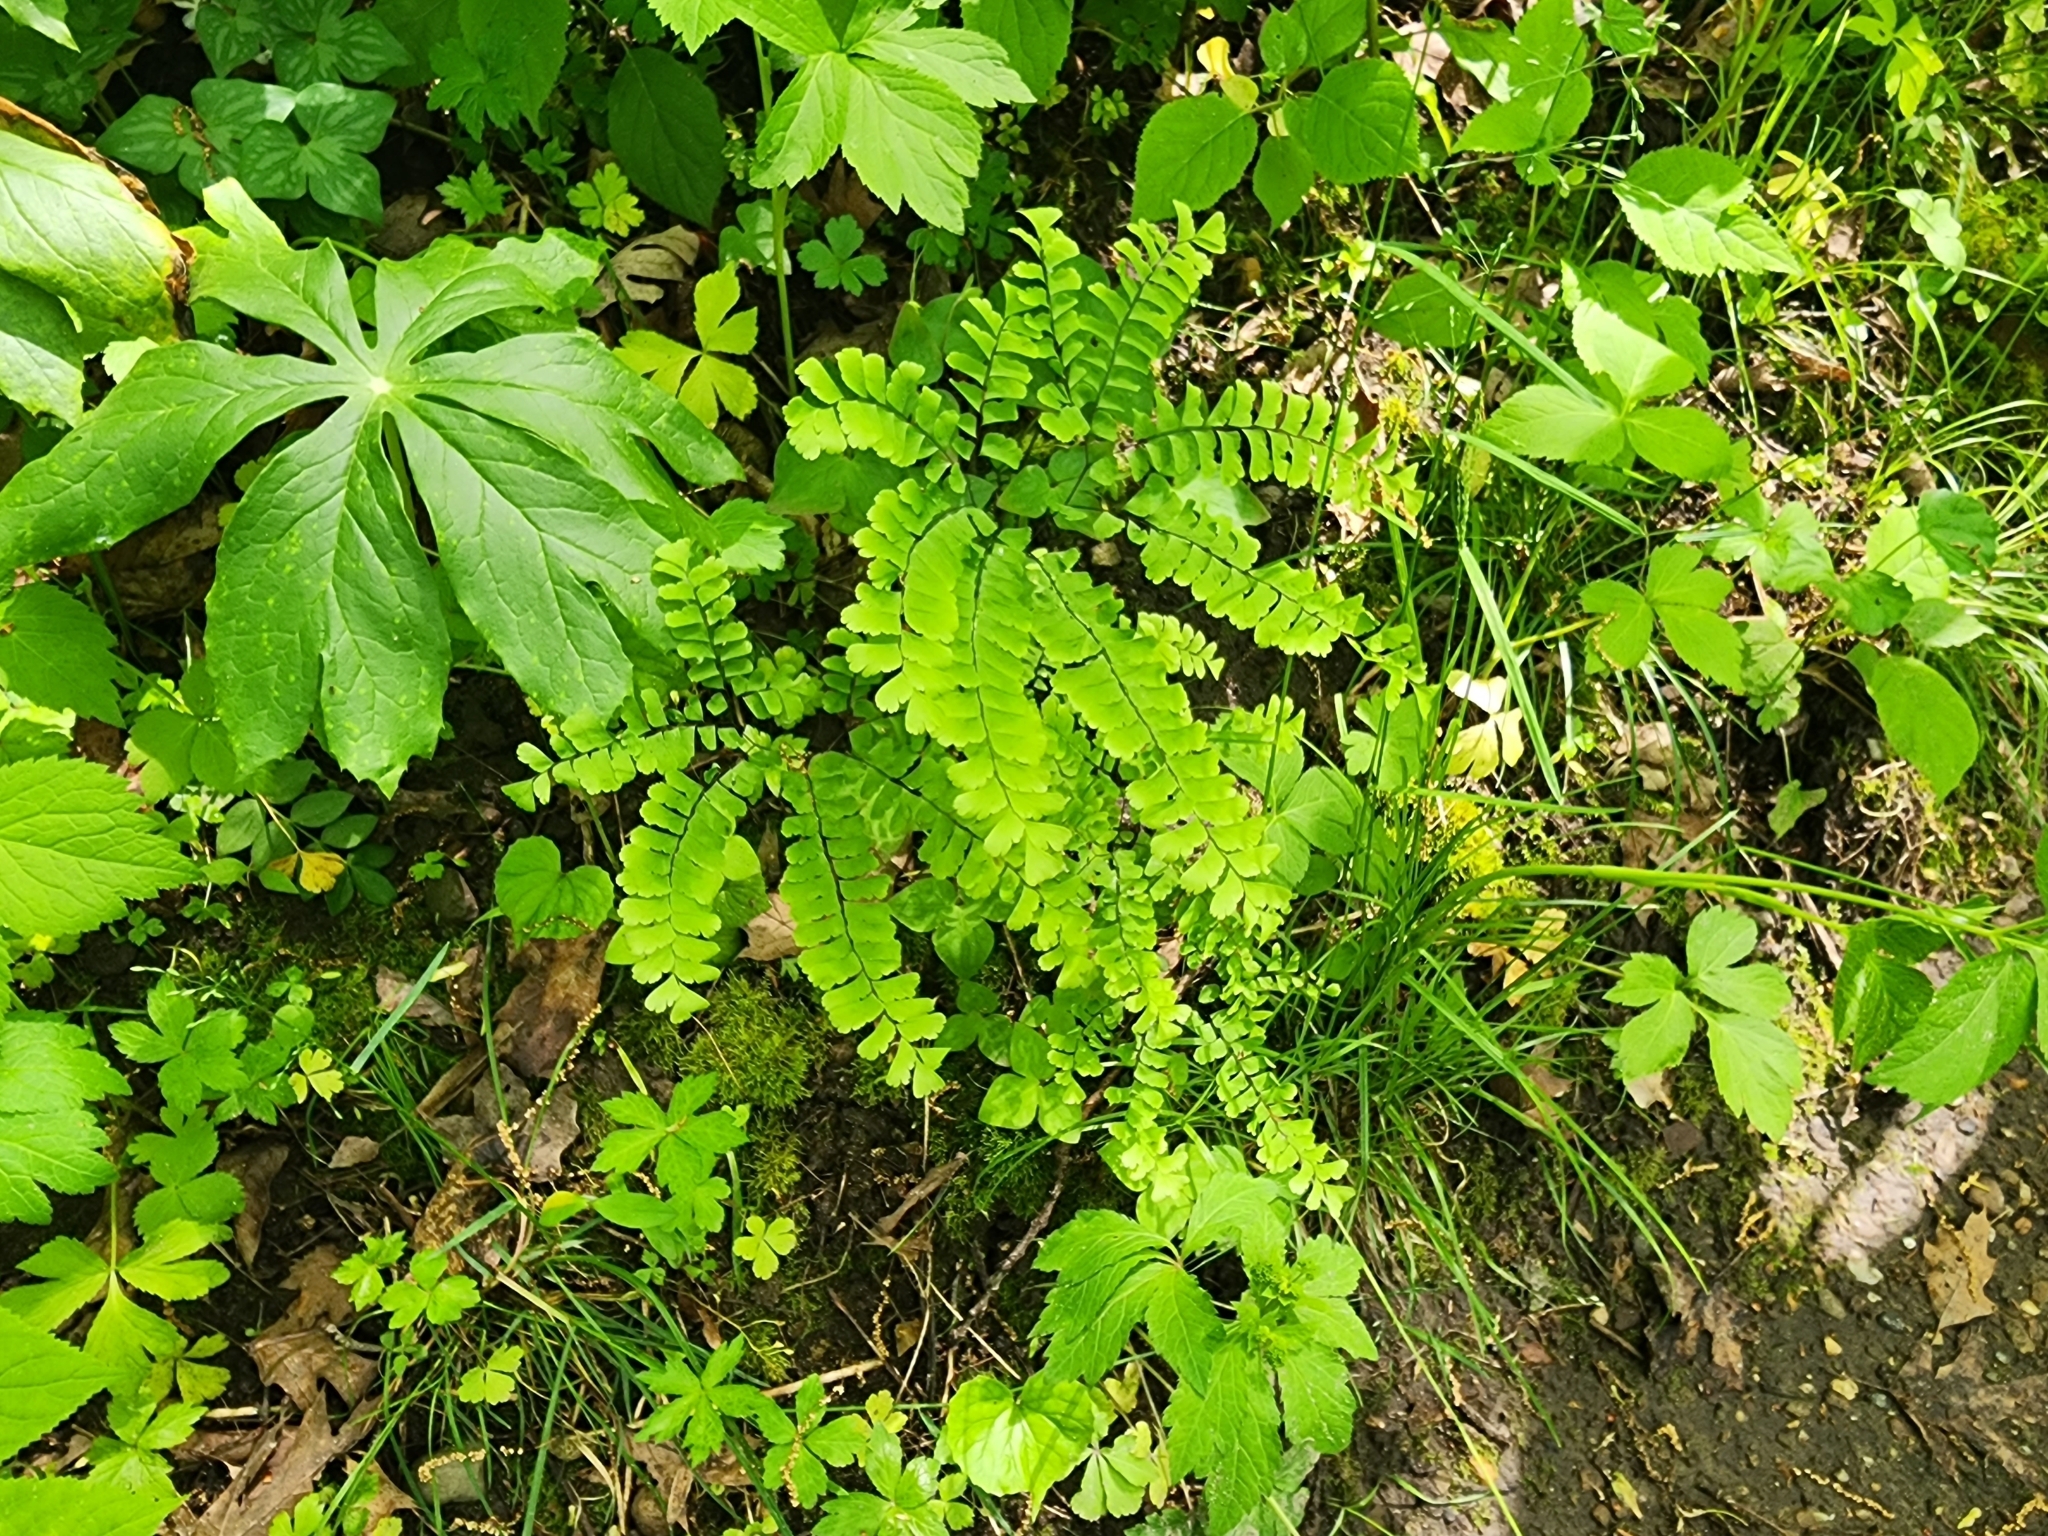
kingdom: Plantae
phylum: Tracheophyta
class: Polypodiopsida
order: Polypodiales
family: Pteridaceae
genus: Adiantum
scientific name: Adiantum pedatum
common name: Five-finger fern
